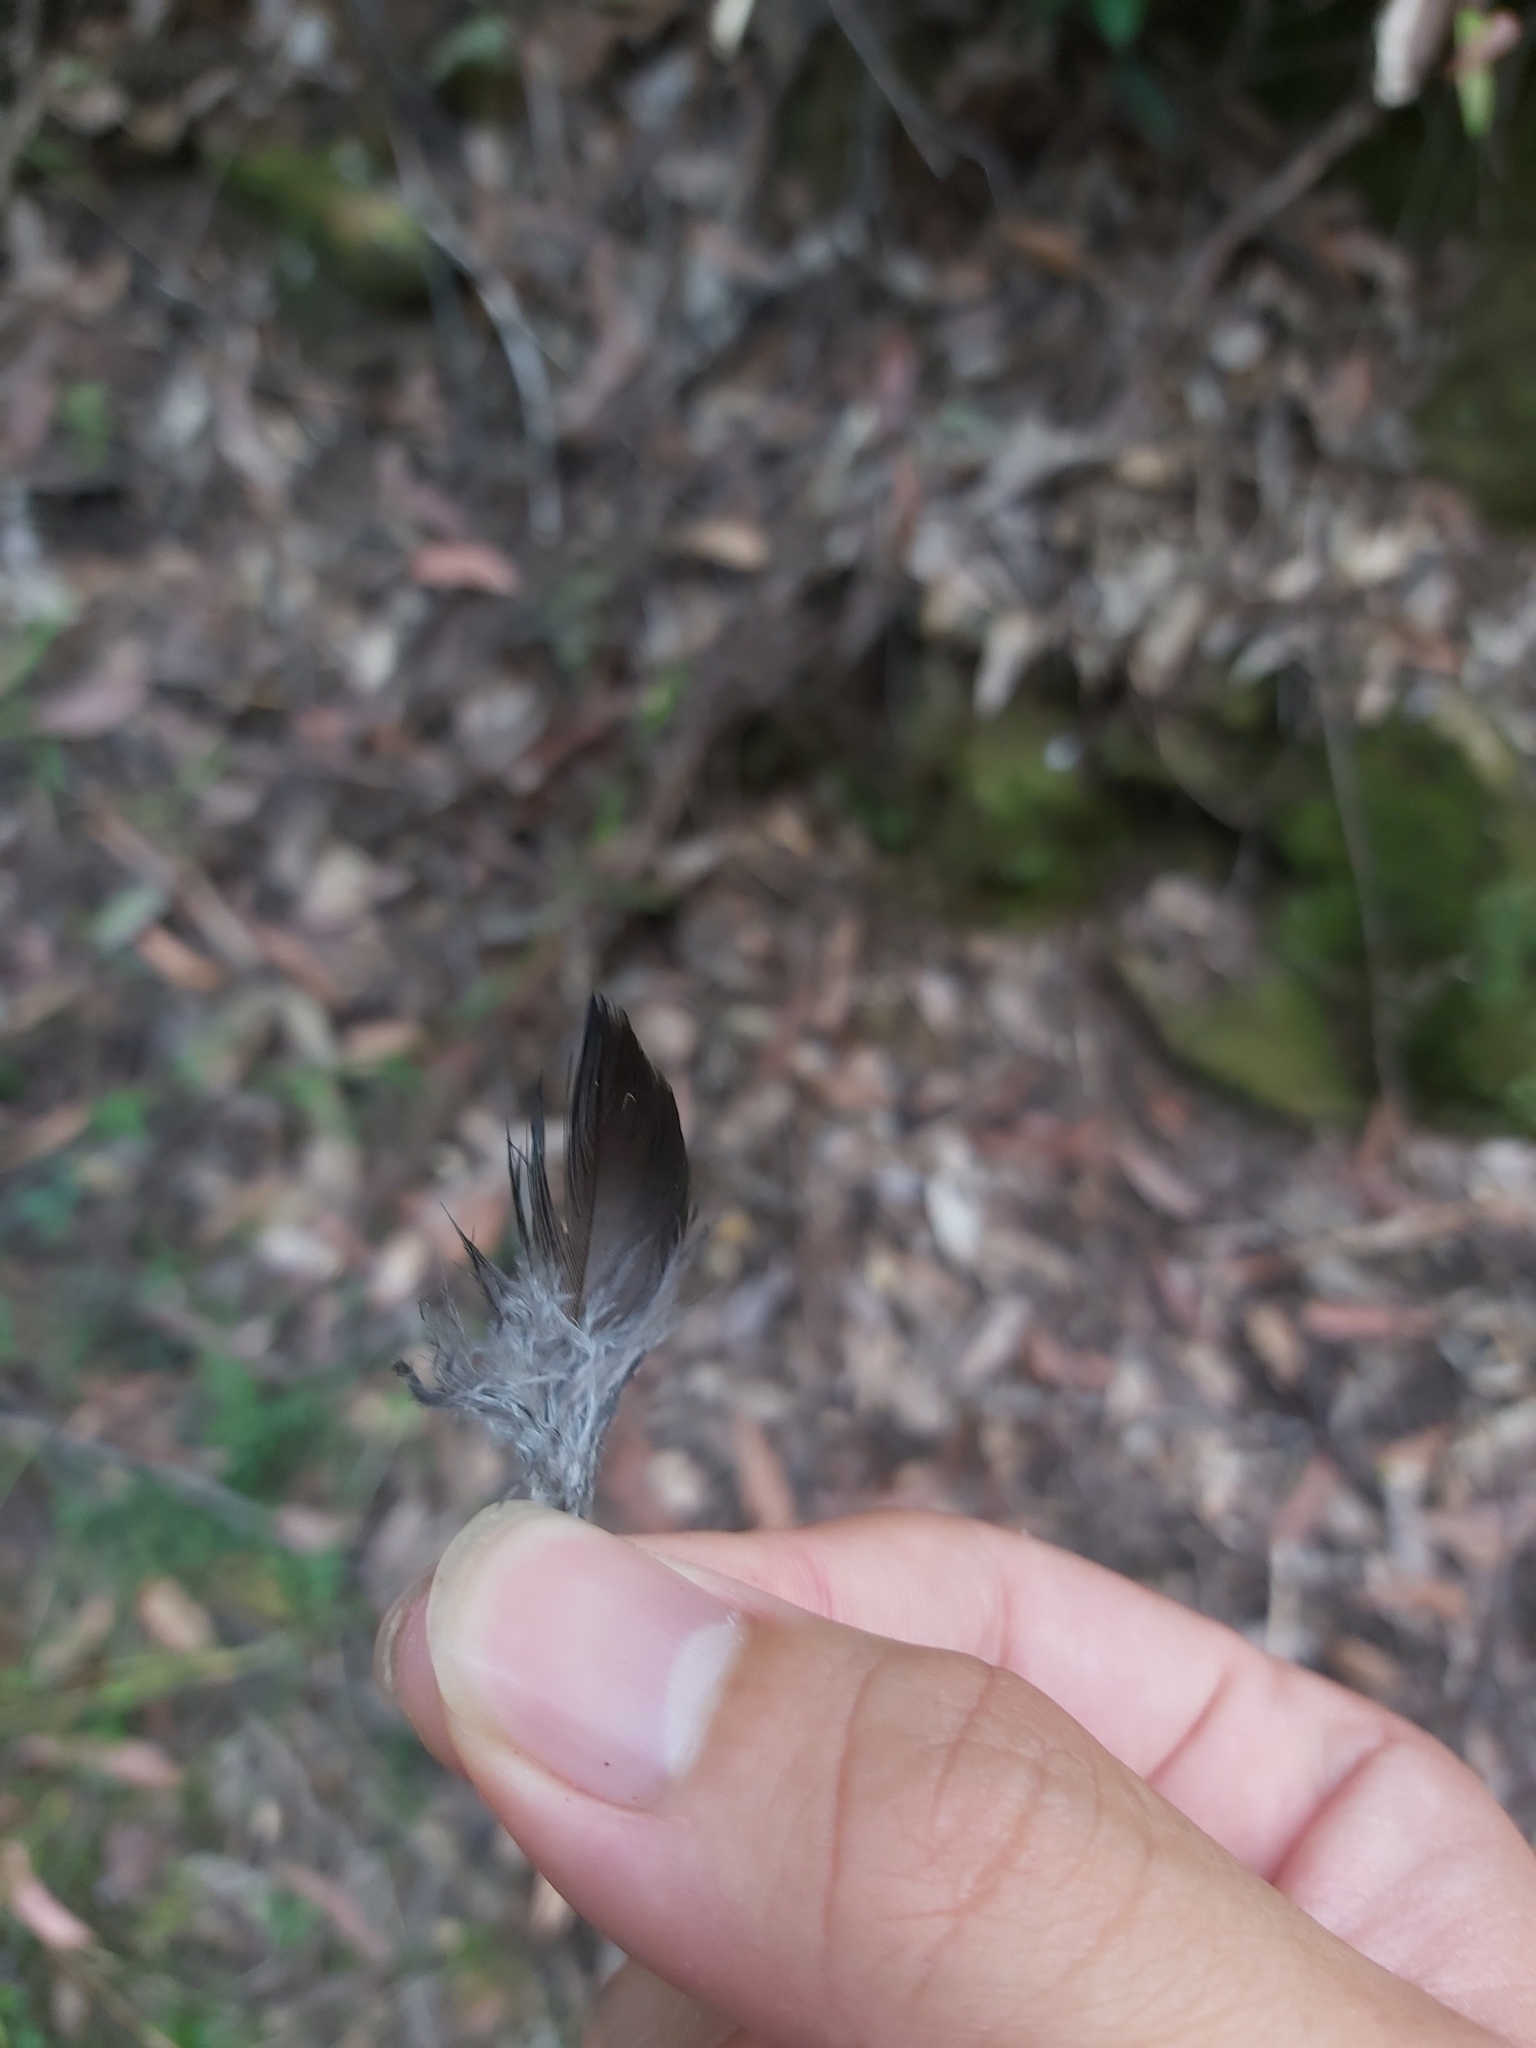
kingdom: Animalia
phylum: Chordata
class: Aves
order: Psittaciformes
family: Psittacidae
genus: Alisterus
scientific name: Alisterus scapularis
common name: Australian king parrot
